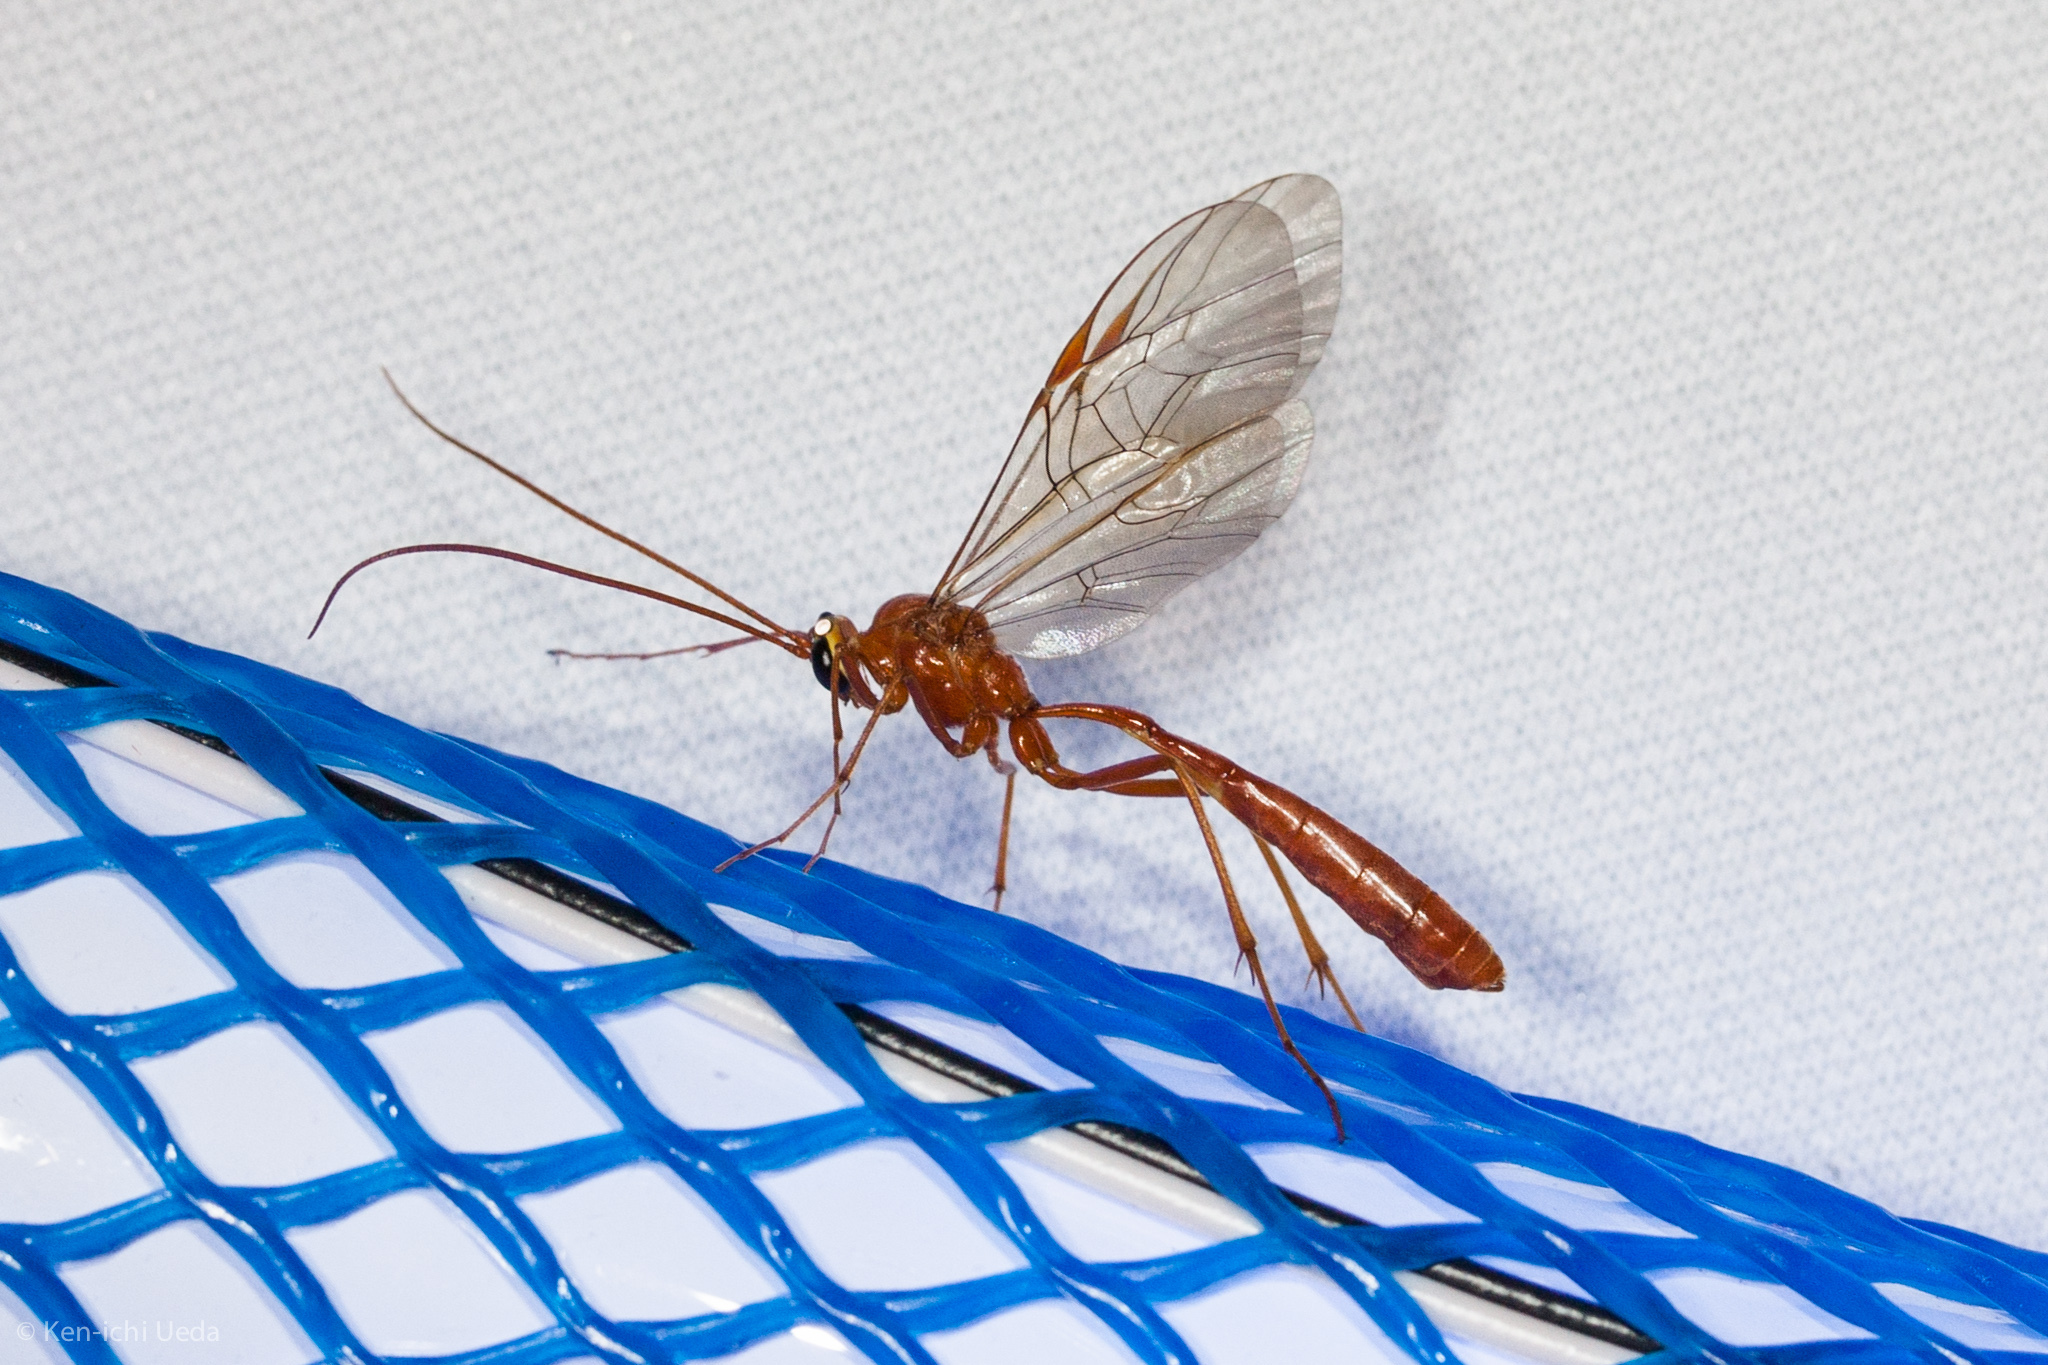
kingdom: Animalia
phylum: Arthropoda
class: Insecta
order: Hymenoptera
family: Ichneumonidae
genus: Ophion
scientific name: Ophion
